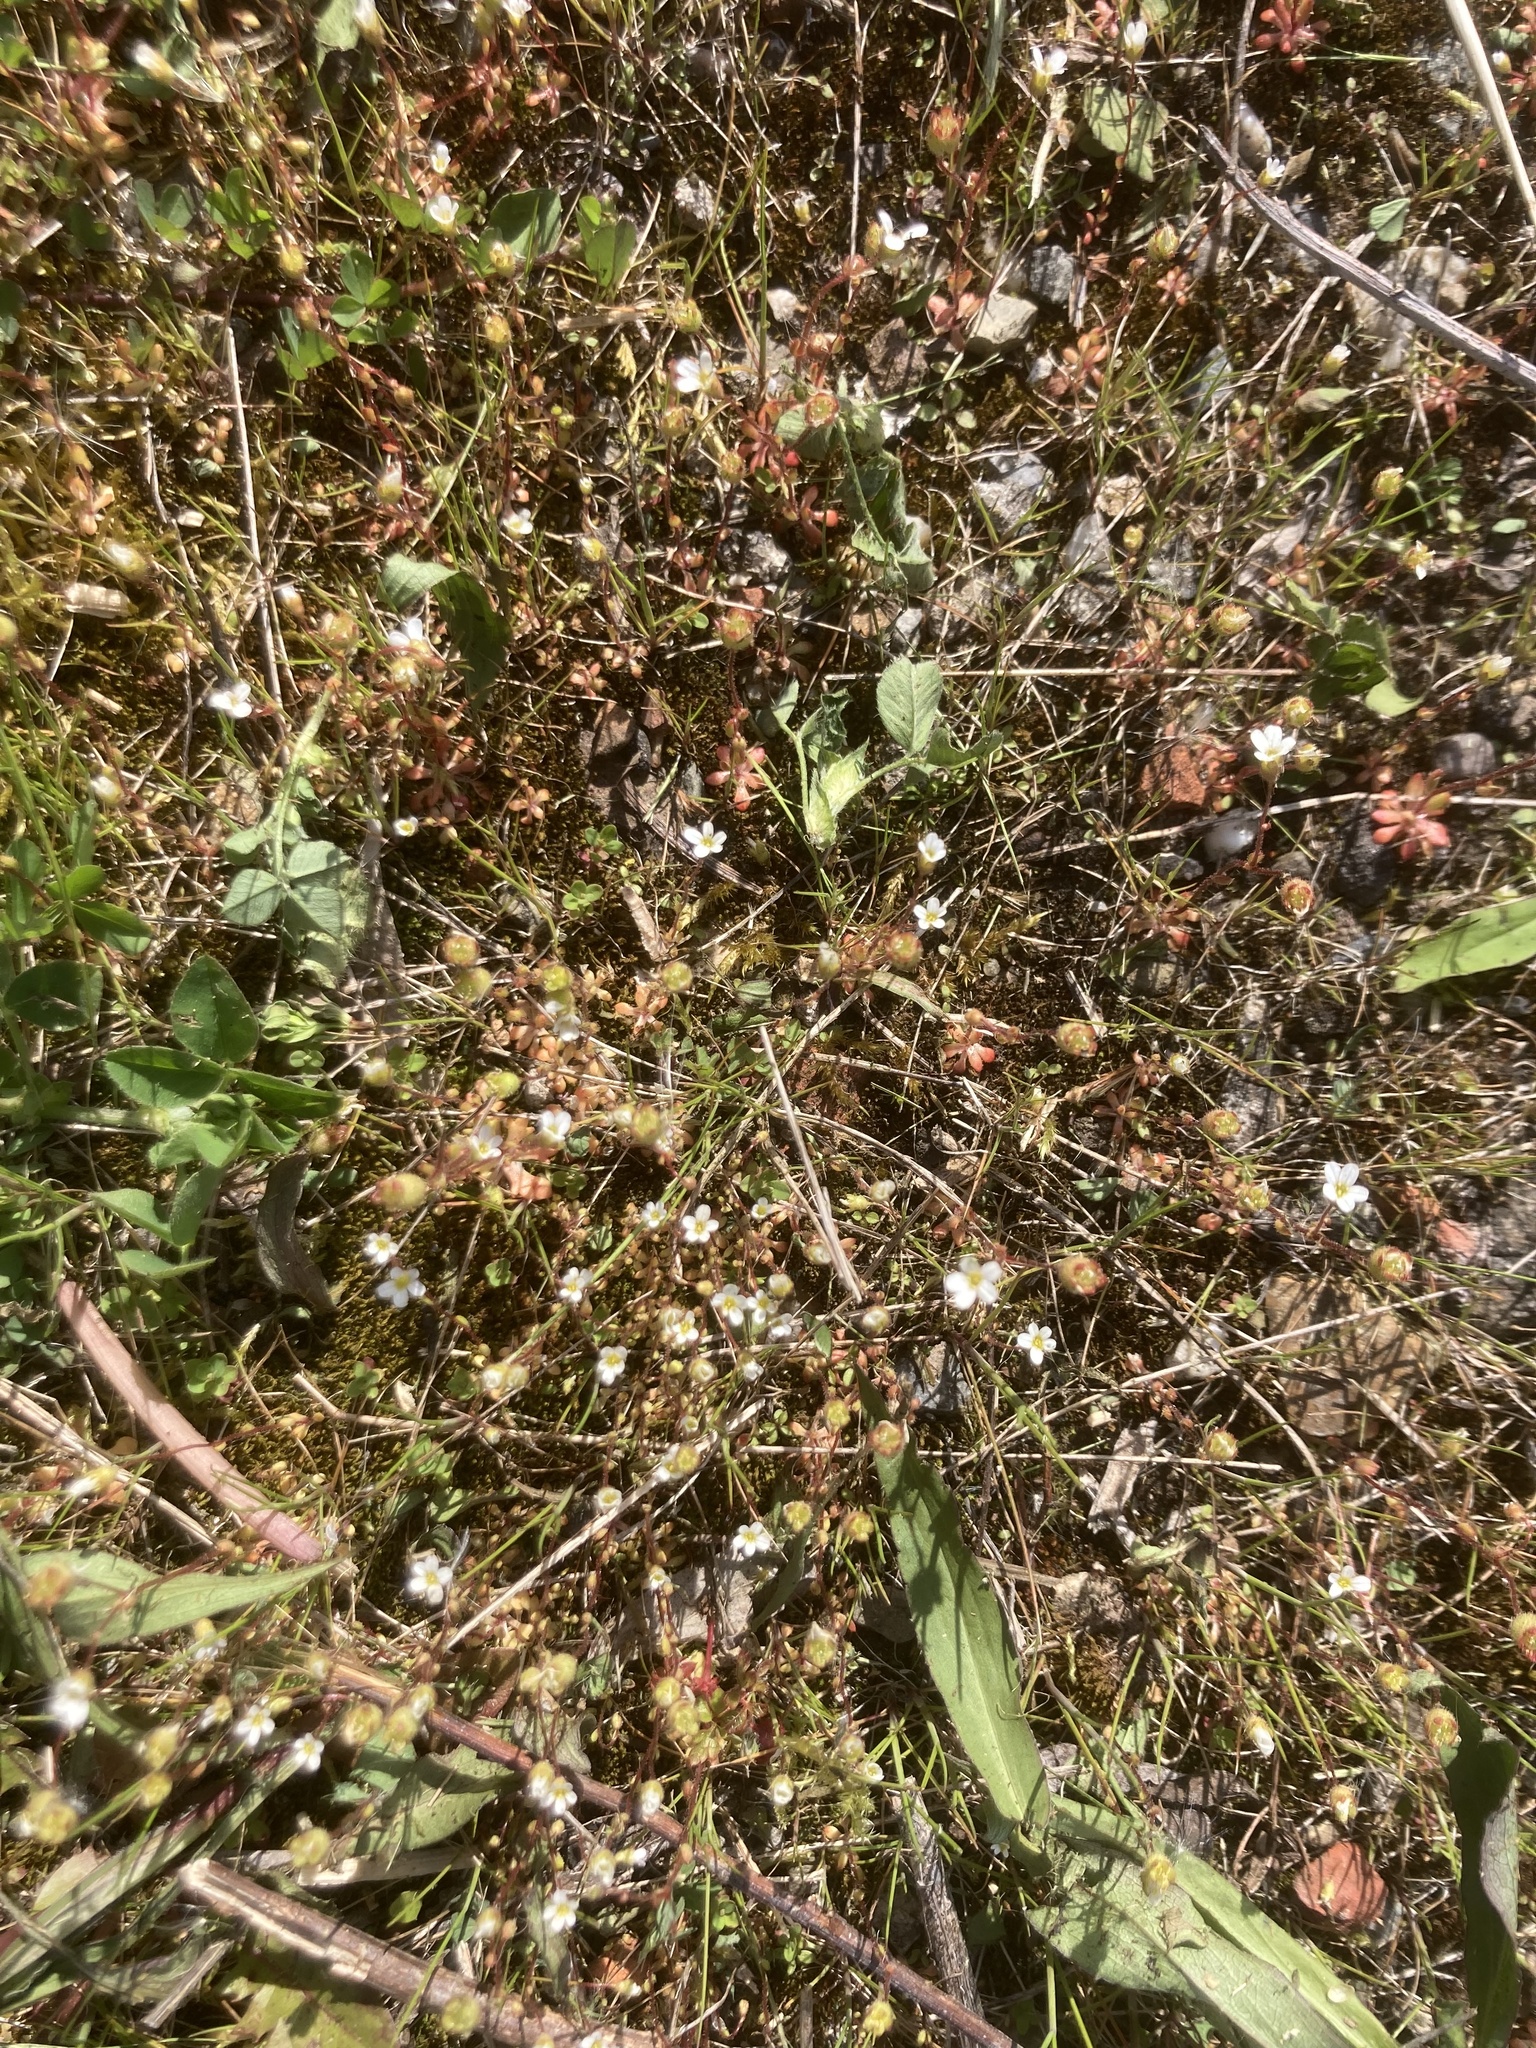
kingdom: Plantae
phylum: Tracheophyta
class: Magnoliopsida
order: Saxifragales
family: Saxifragaceae
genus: Saxifraga
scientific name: Saxifraga tridactylites
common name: Rue-leaved saxifrage
